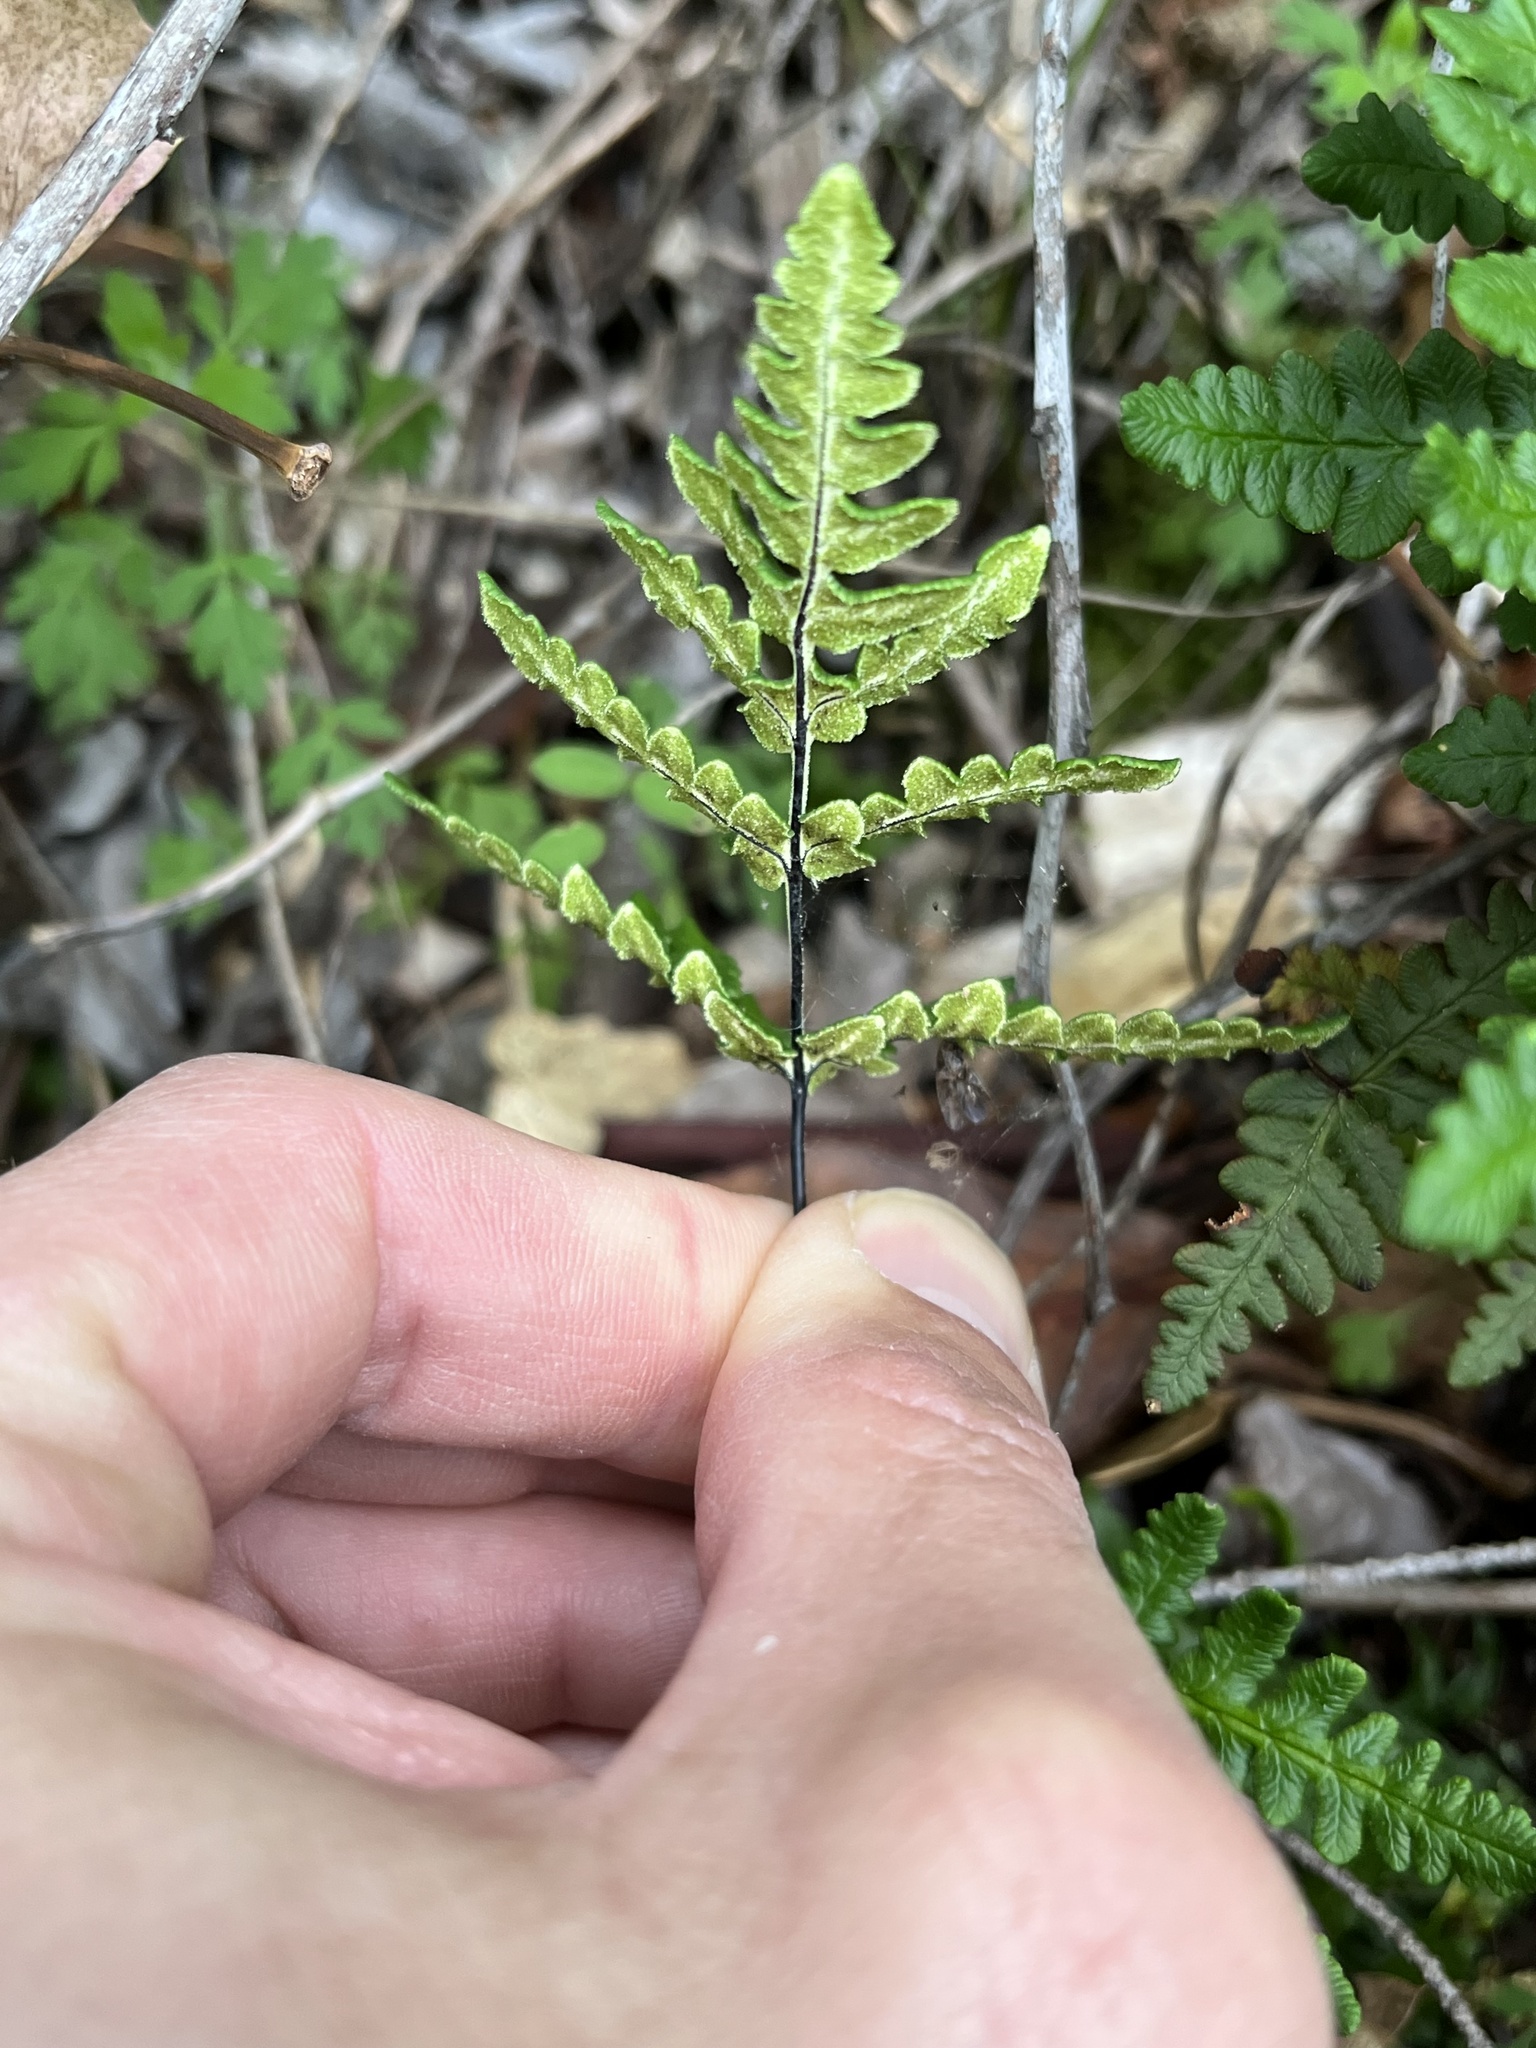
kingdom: Plantae
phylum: Tracheophyta
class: Polypodiopsida
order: Polypodiales
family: Pteridaceae
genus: Pentagramma
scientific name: Pentagramma triangularis
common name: Gold fern
